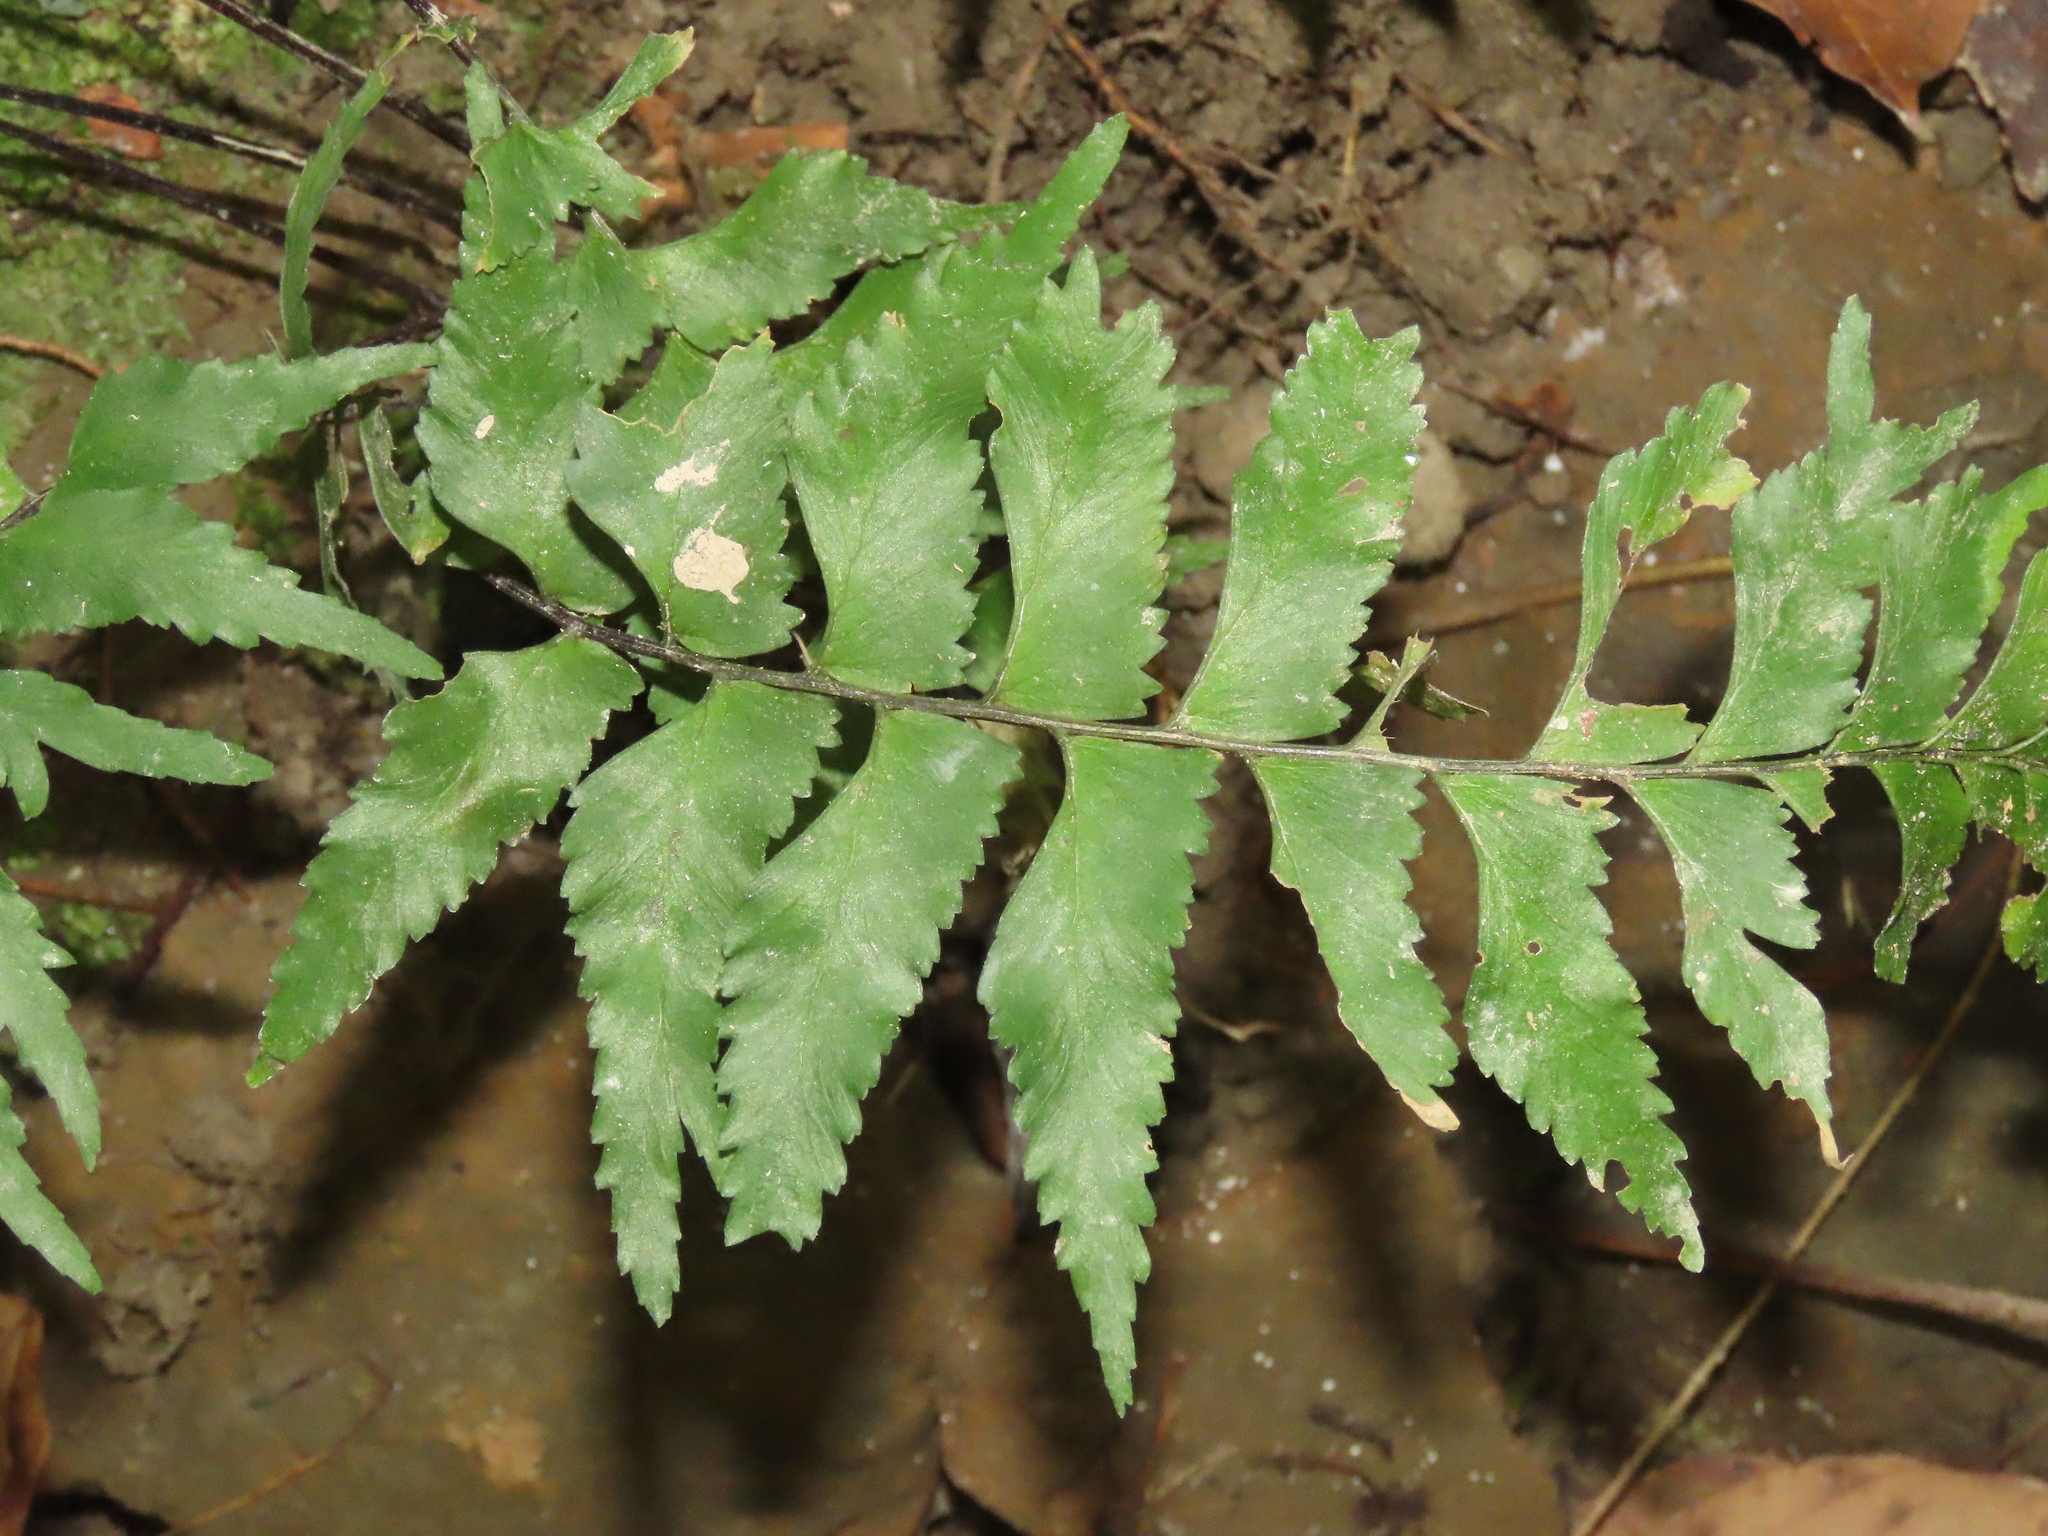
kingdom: Plantae
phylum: Tracheophyta
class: Polypodiopsida
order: Polypodiales
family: Aspleniaceae
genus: Hymenasplenium
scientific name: Hymenasplenium excisum
